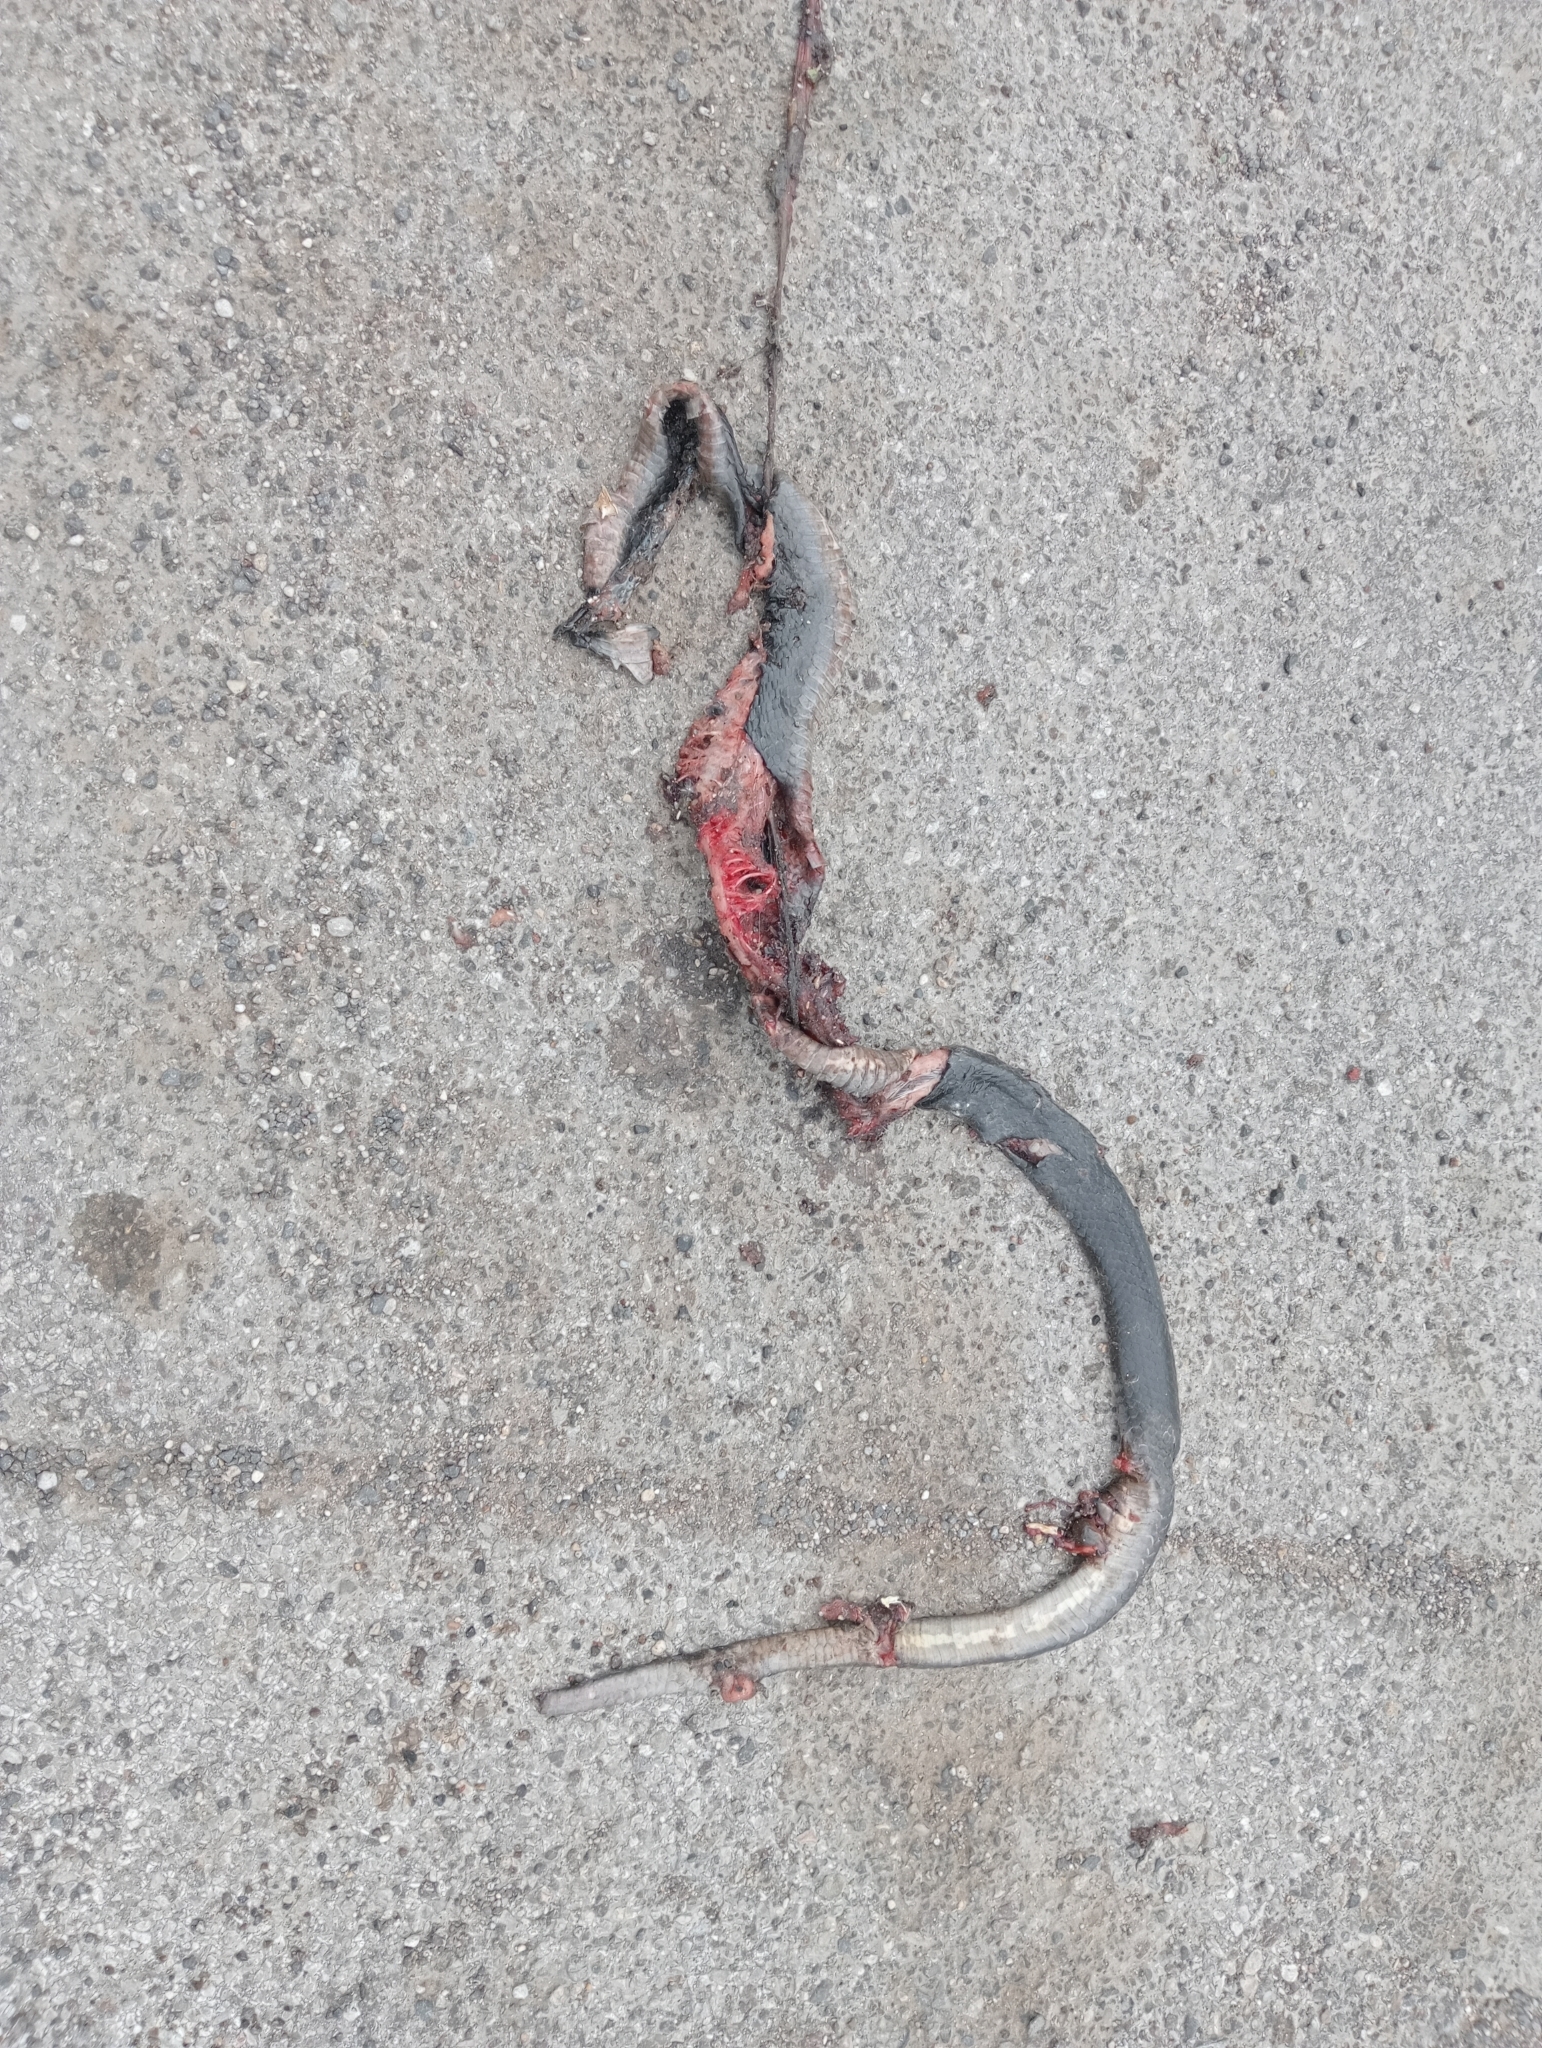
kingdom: Animalia
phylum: Chordata
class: Squamata
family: Colubridae
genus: Hierophis
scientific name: Hierophis viridiflavus
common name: Green whip snake
